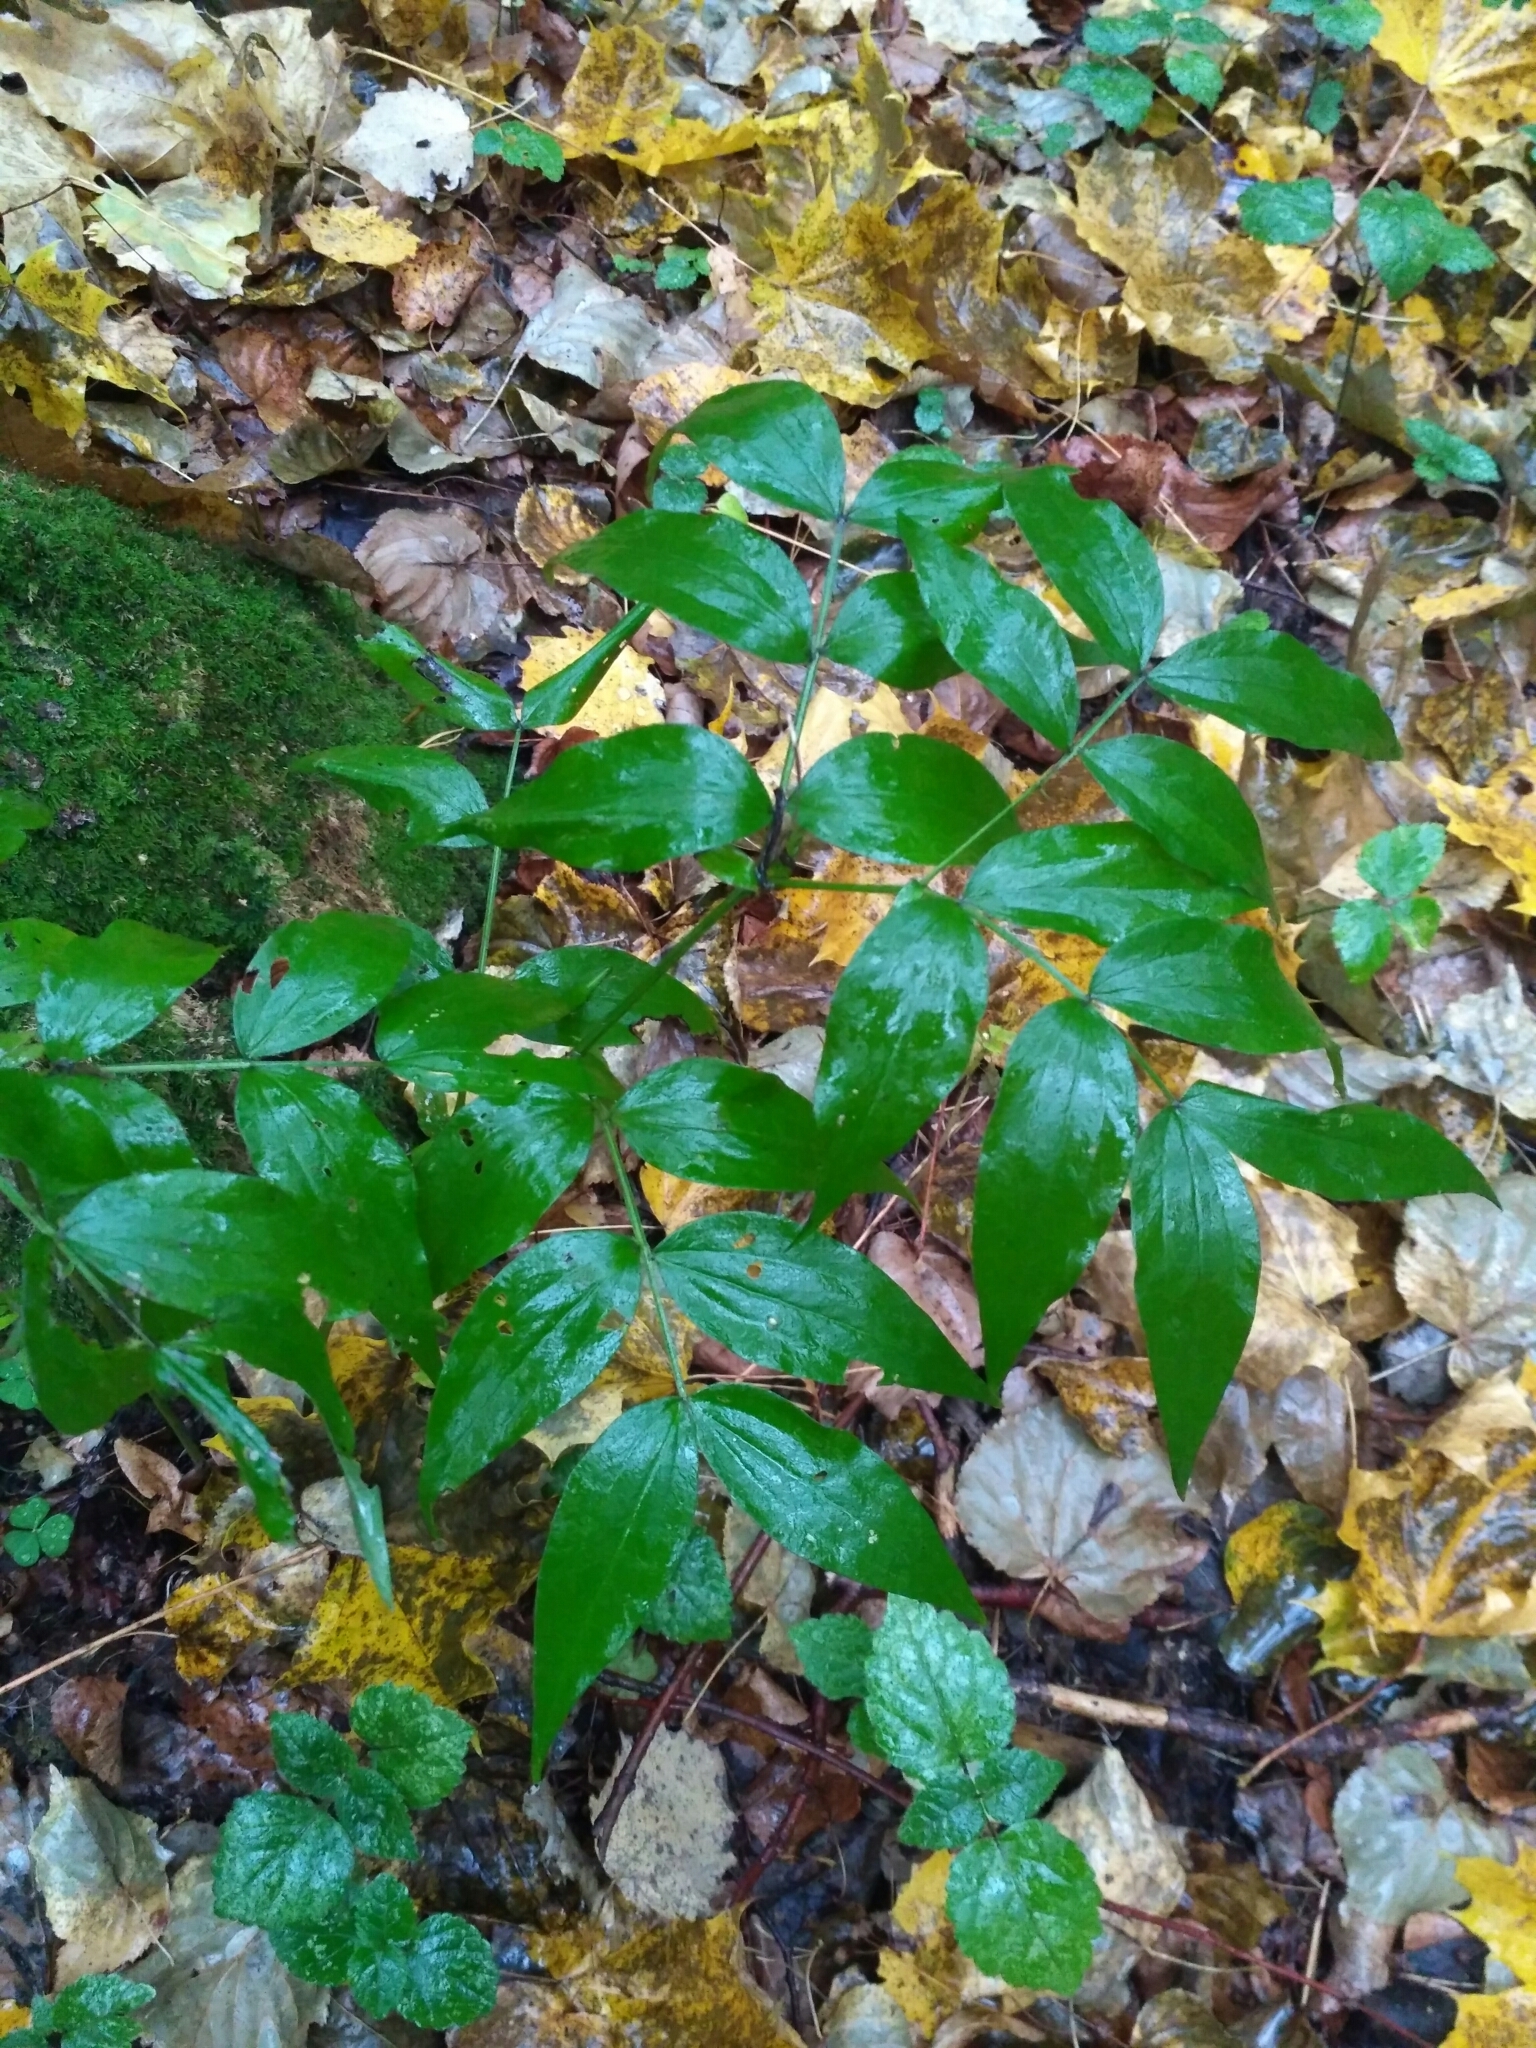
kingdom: Plantae
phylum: Tracheophyta
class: Magnoliopsida
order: Fabales
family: Fabaceae
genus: Lathyrus
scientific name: Lathyrus vernus
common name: Spring pea
